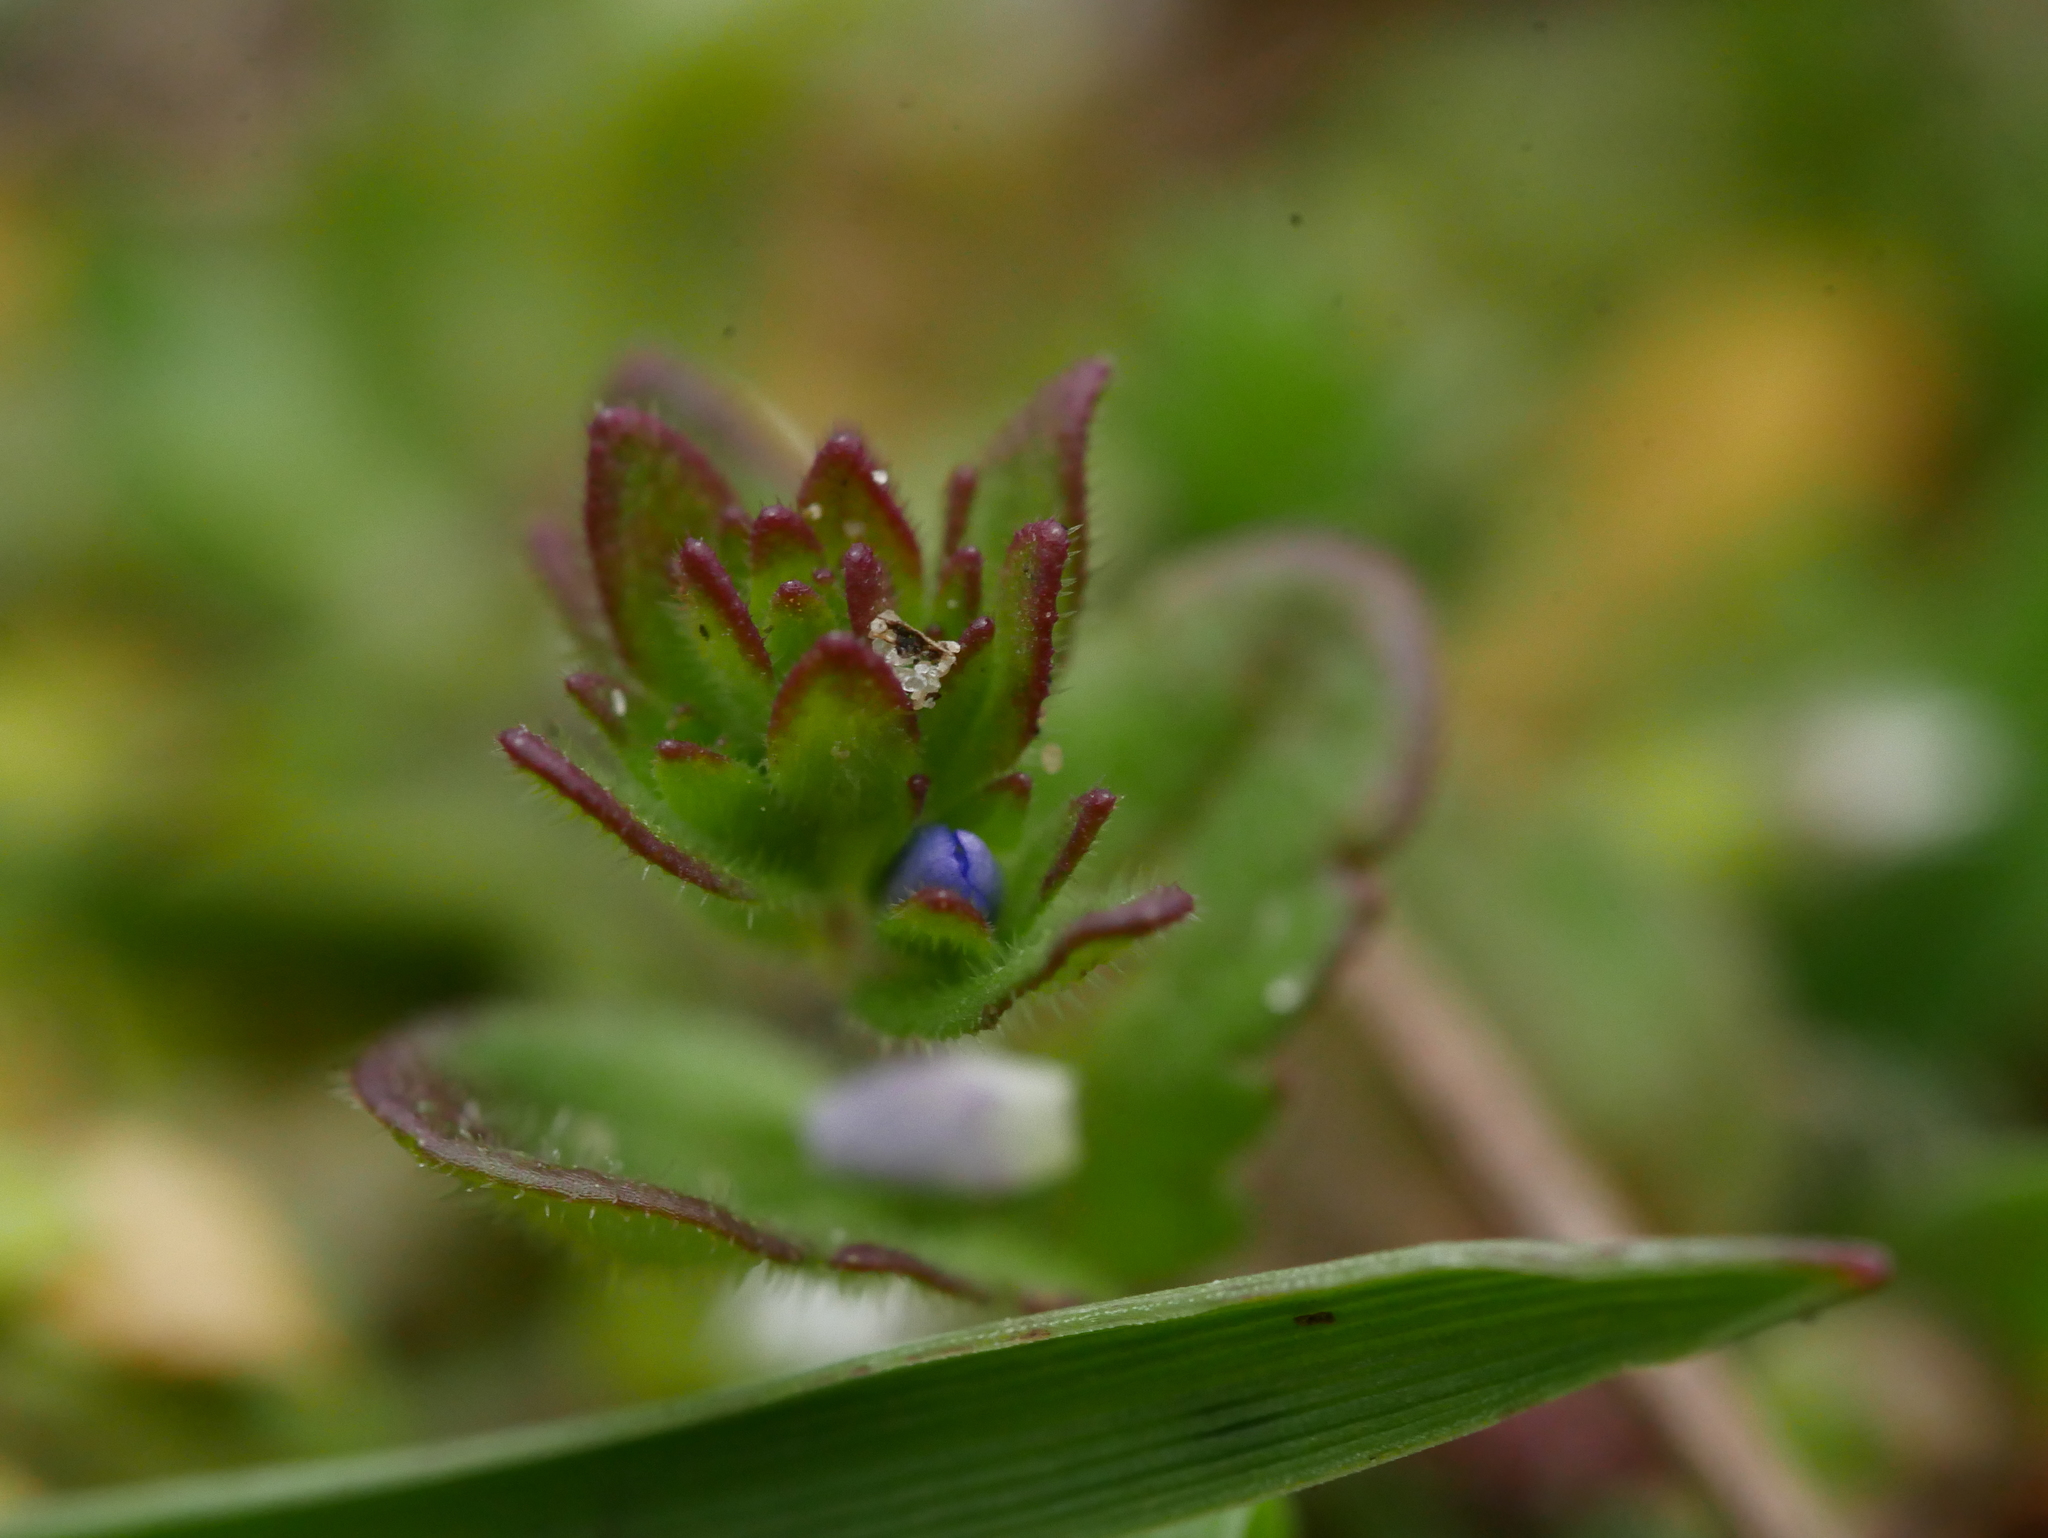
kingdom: Plantae
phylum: Tracheophyta
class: Magnoliopsida
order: Lamiales
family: Plantaginaceae
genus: Veronica
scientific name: Veronica arvensis
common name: Corn speedwell
